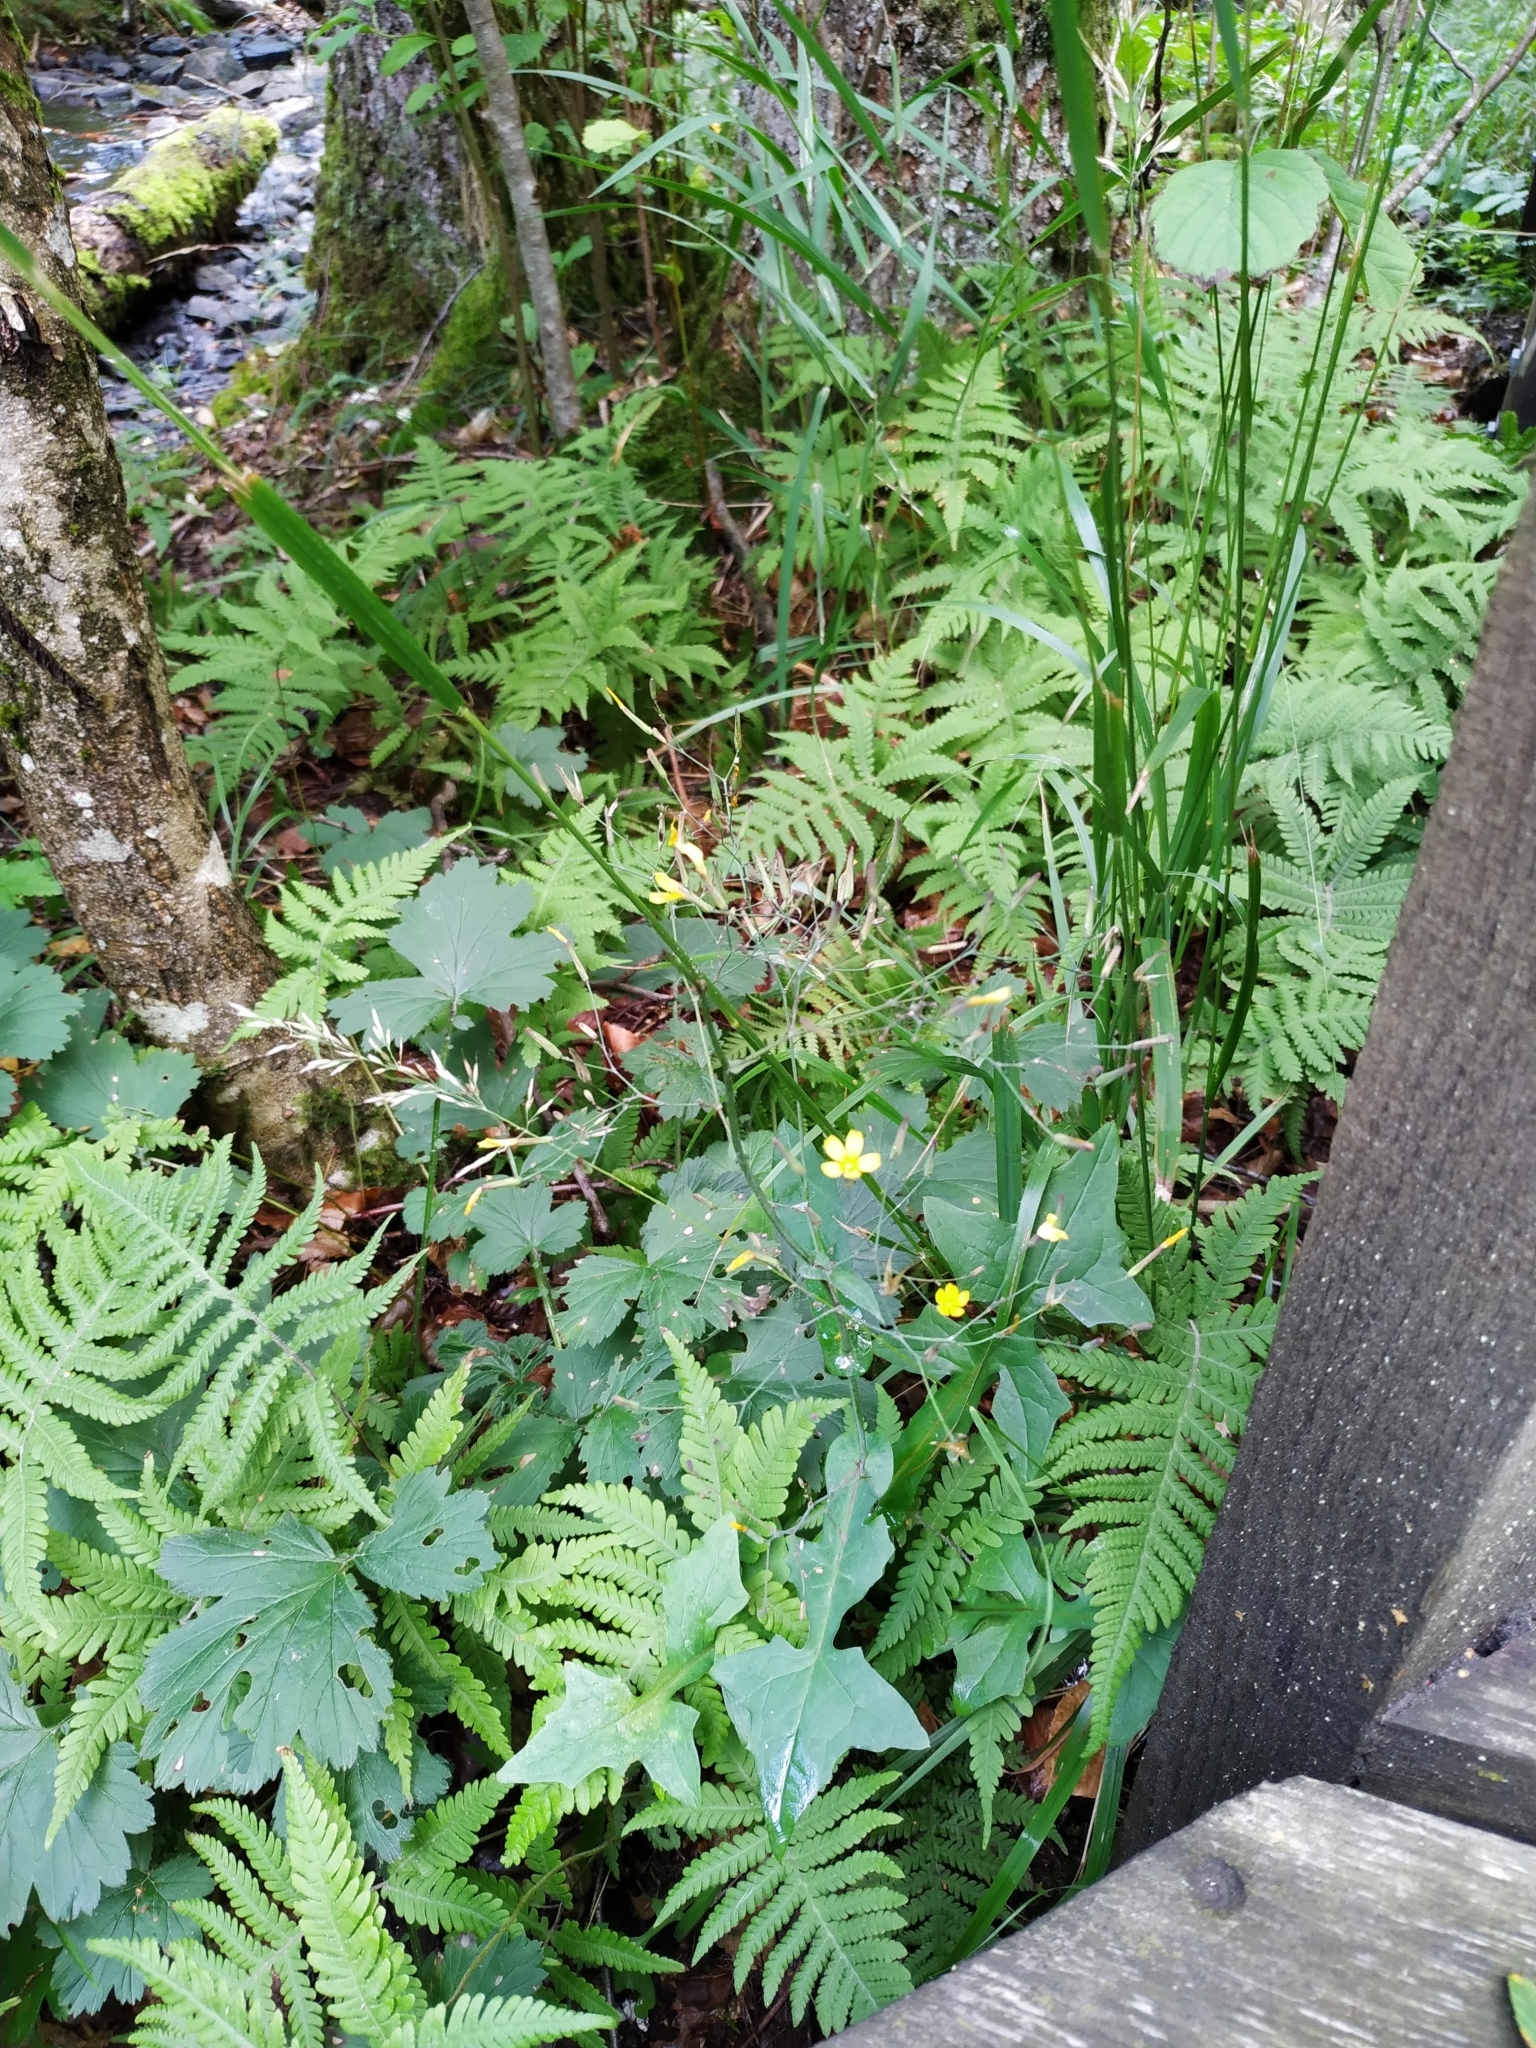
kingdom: Plantae
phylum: Tracheophyta
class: Magnoliopsida
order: Asterales
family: Asteraceae
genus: Mycelis
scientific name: Mycelis muralis
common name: Wall lettuce
